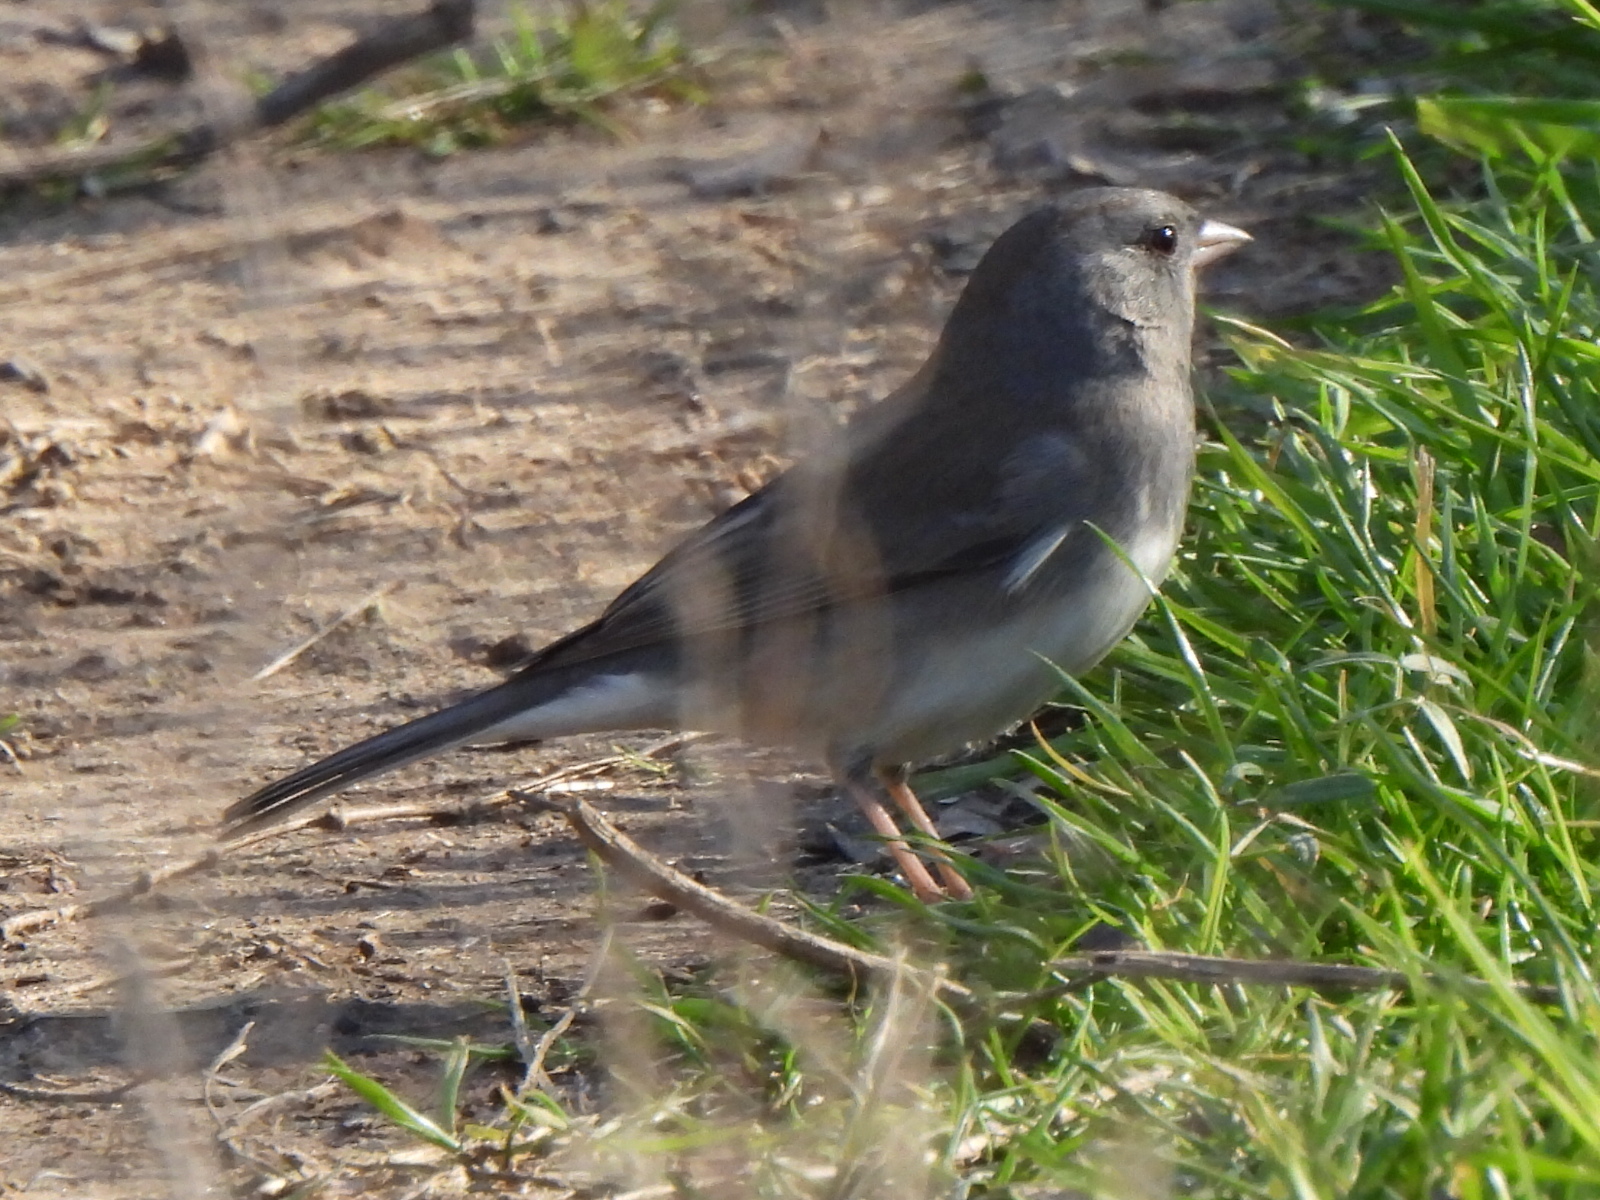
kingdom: Animalia
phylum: Chordata
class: Aves
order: Passeriformes
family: Passerellidae
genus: Junco
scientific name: Junco hyemalis
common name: Dark-eyed junco
